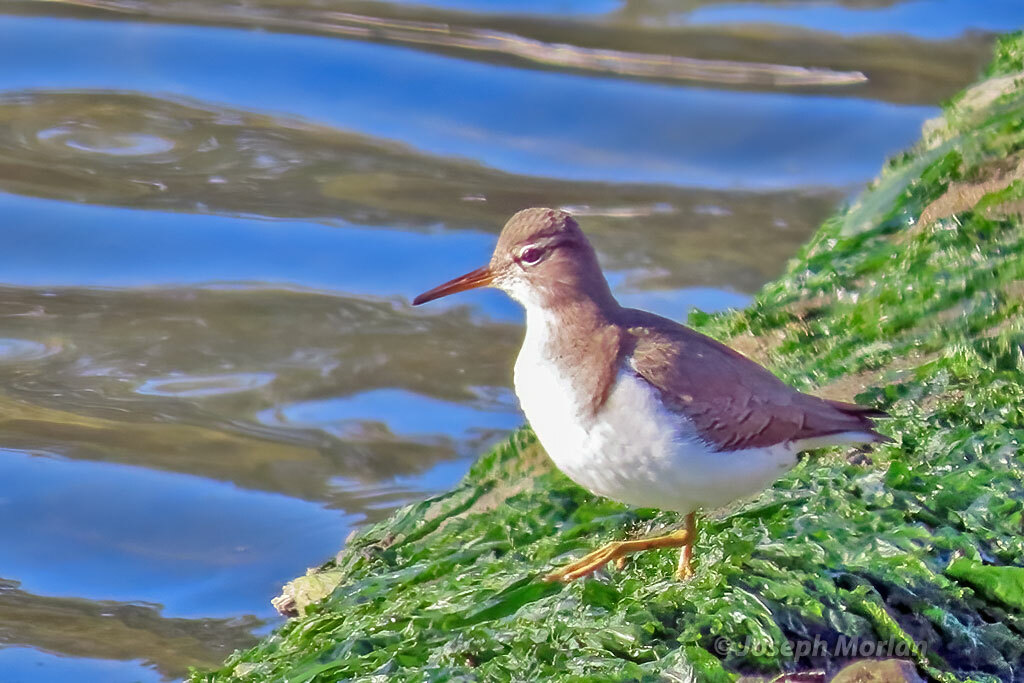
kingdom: Animalia
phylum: Chordata
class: Aves
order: Charadriiformes
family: Scolopacidae
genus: Actitis
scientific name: Actitis macularius
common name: Spotted sandpiper
